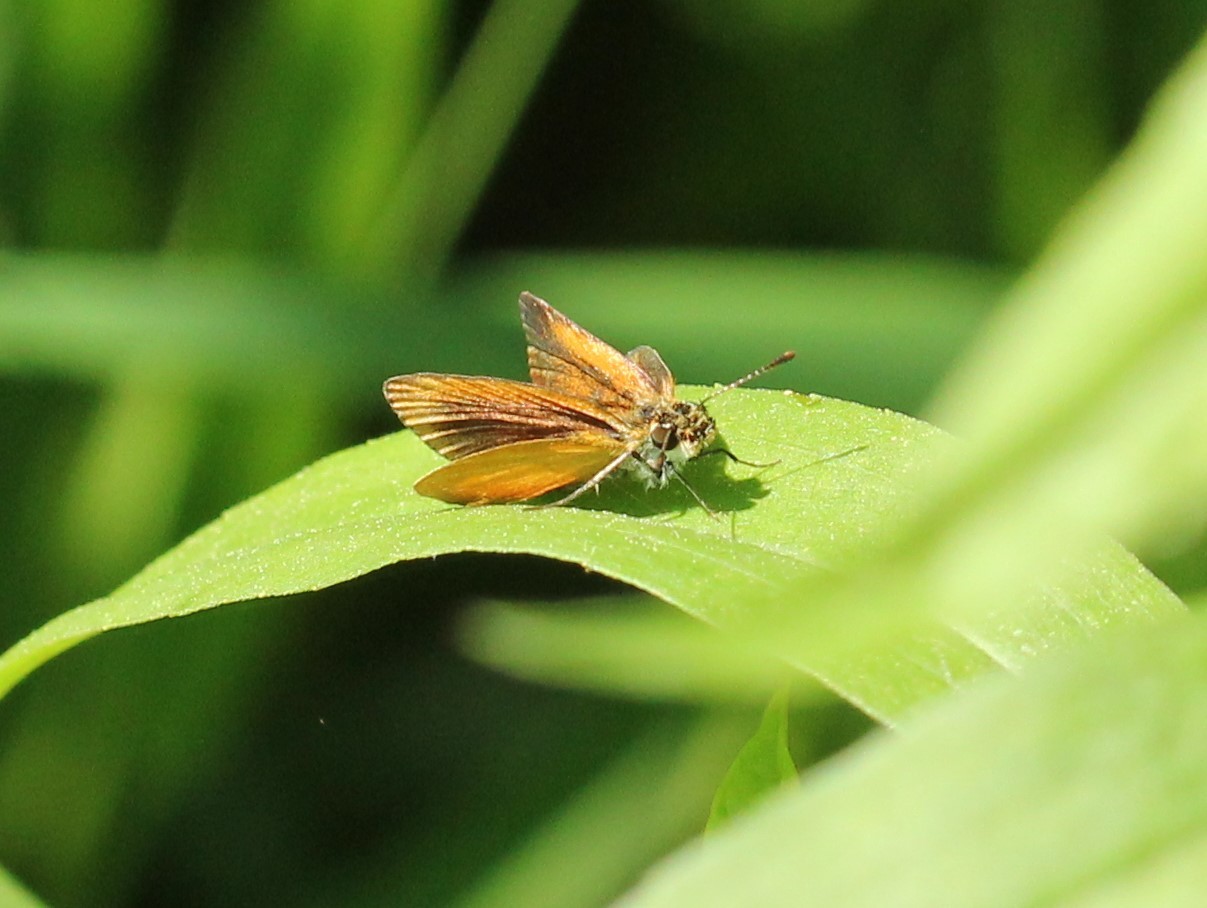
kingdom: Animalia
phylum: Arthropoda
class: Insecta
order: Lepidoptera
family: Hesperiidae
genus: Ancyloxypha
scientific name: Ancyloxypha numitor
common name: Least skipper
